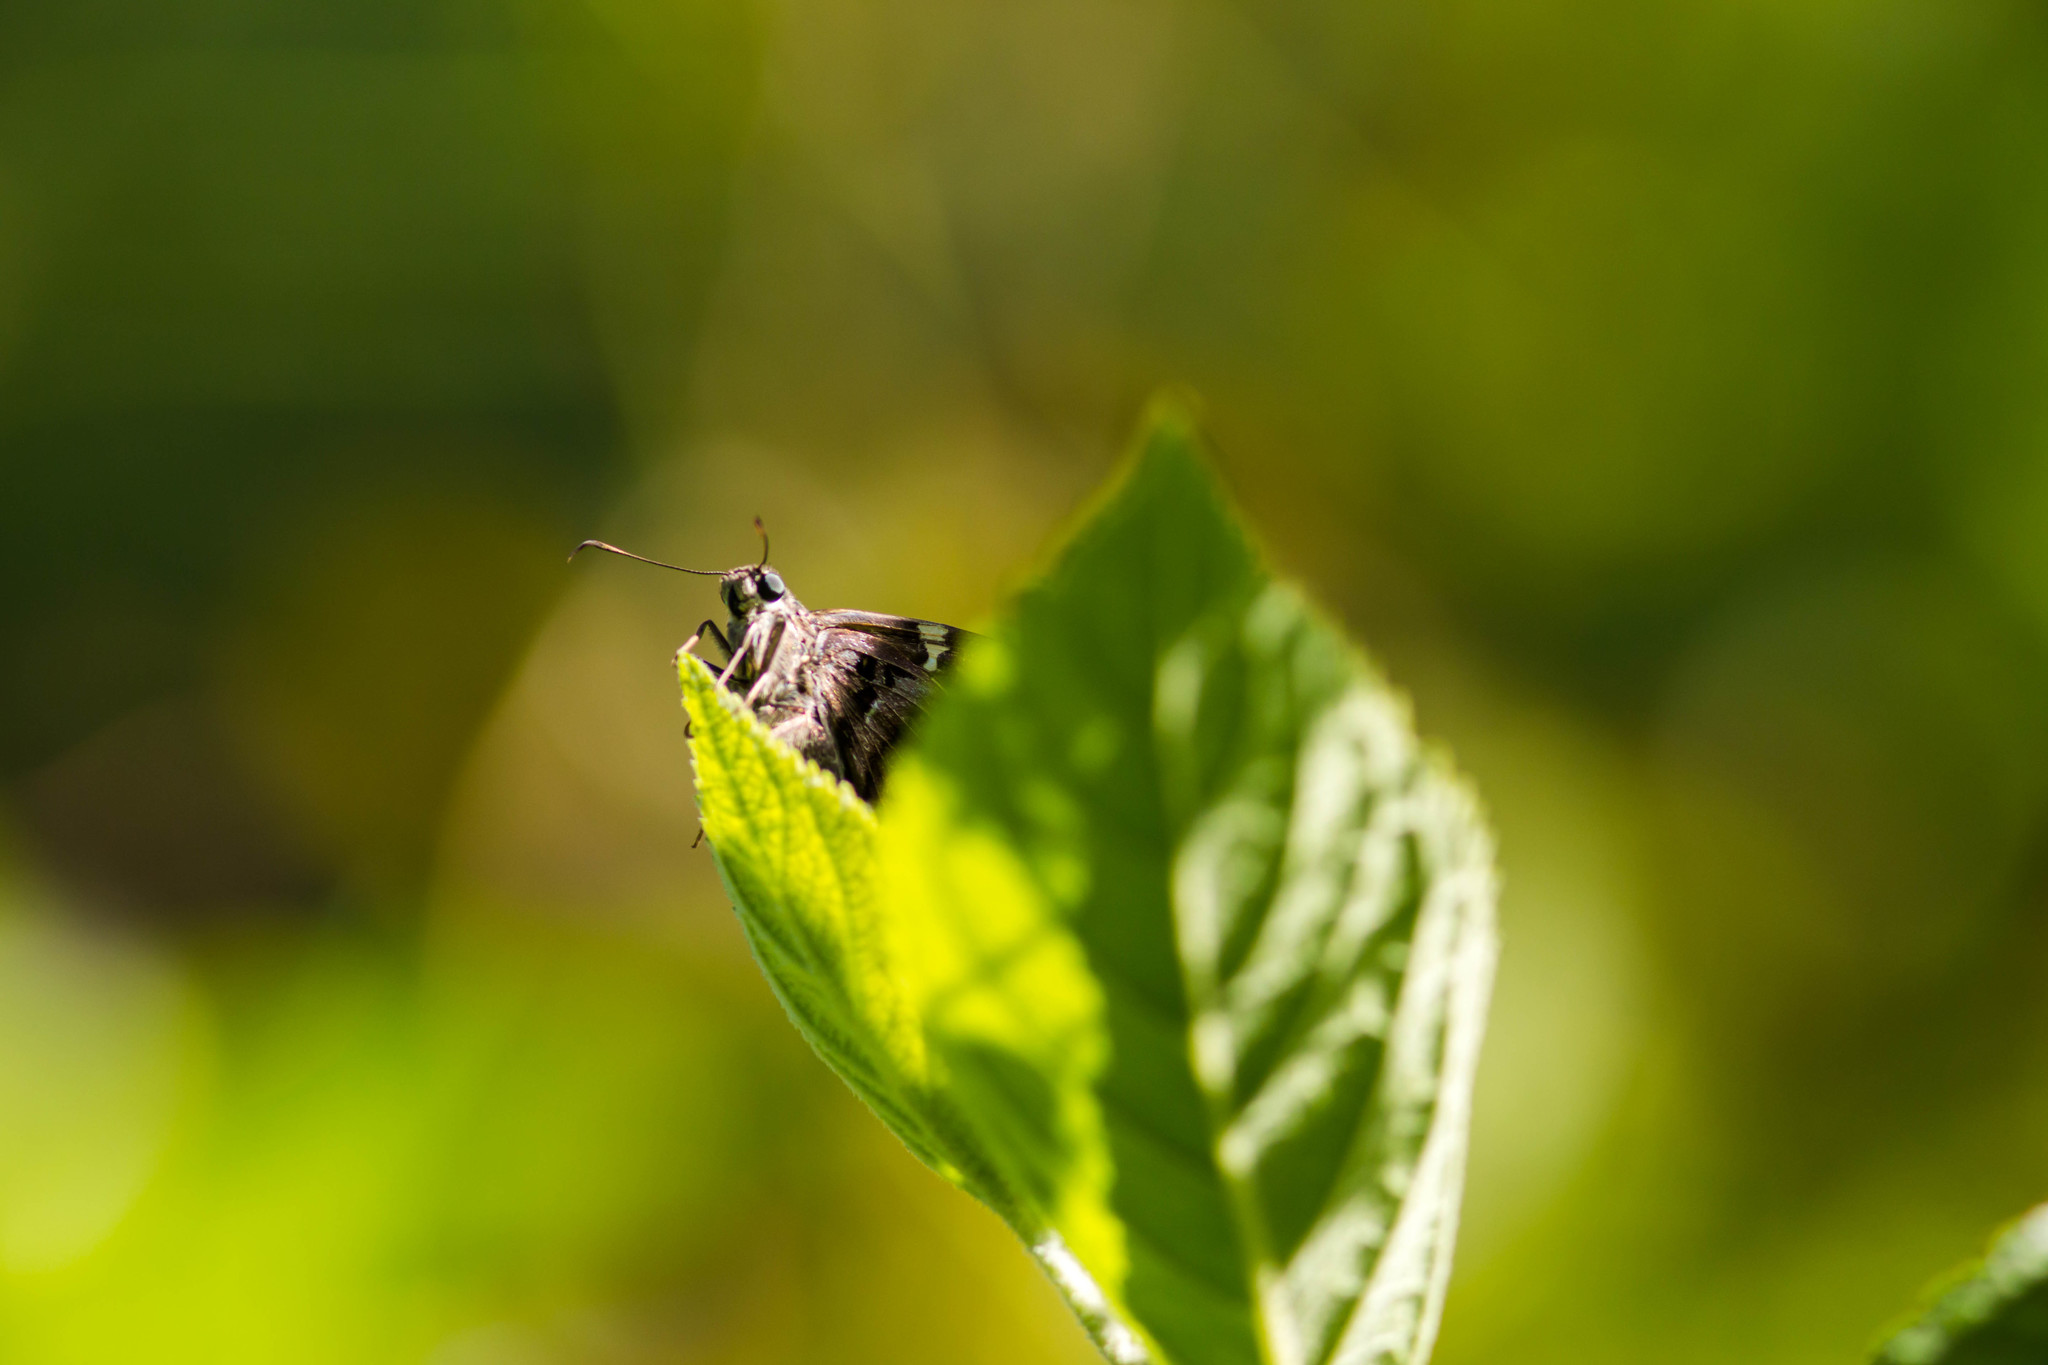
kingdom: Animalia
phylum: Arthropoda
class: Insecta
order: Lepidoptera
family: Hesperiidae
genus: Urbanus
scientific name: Urbanus proteus
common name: Long-tailed skipper
